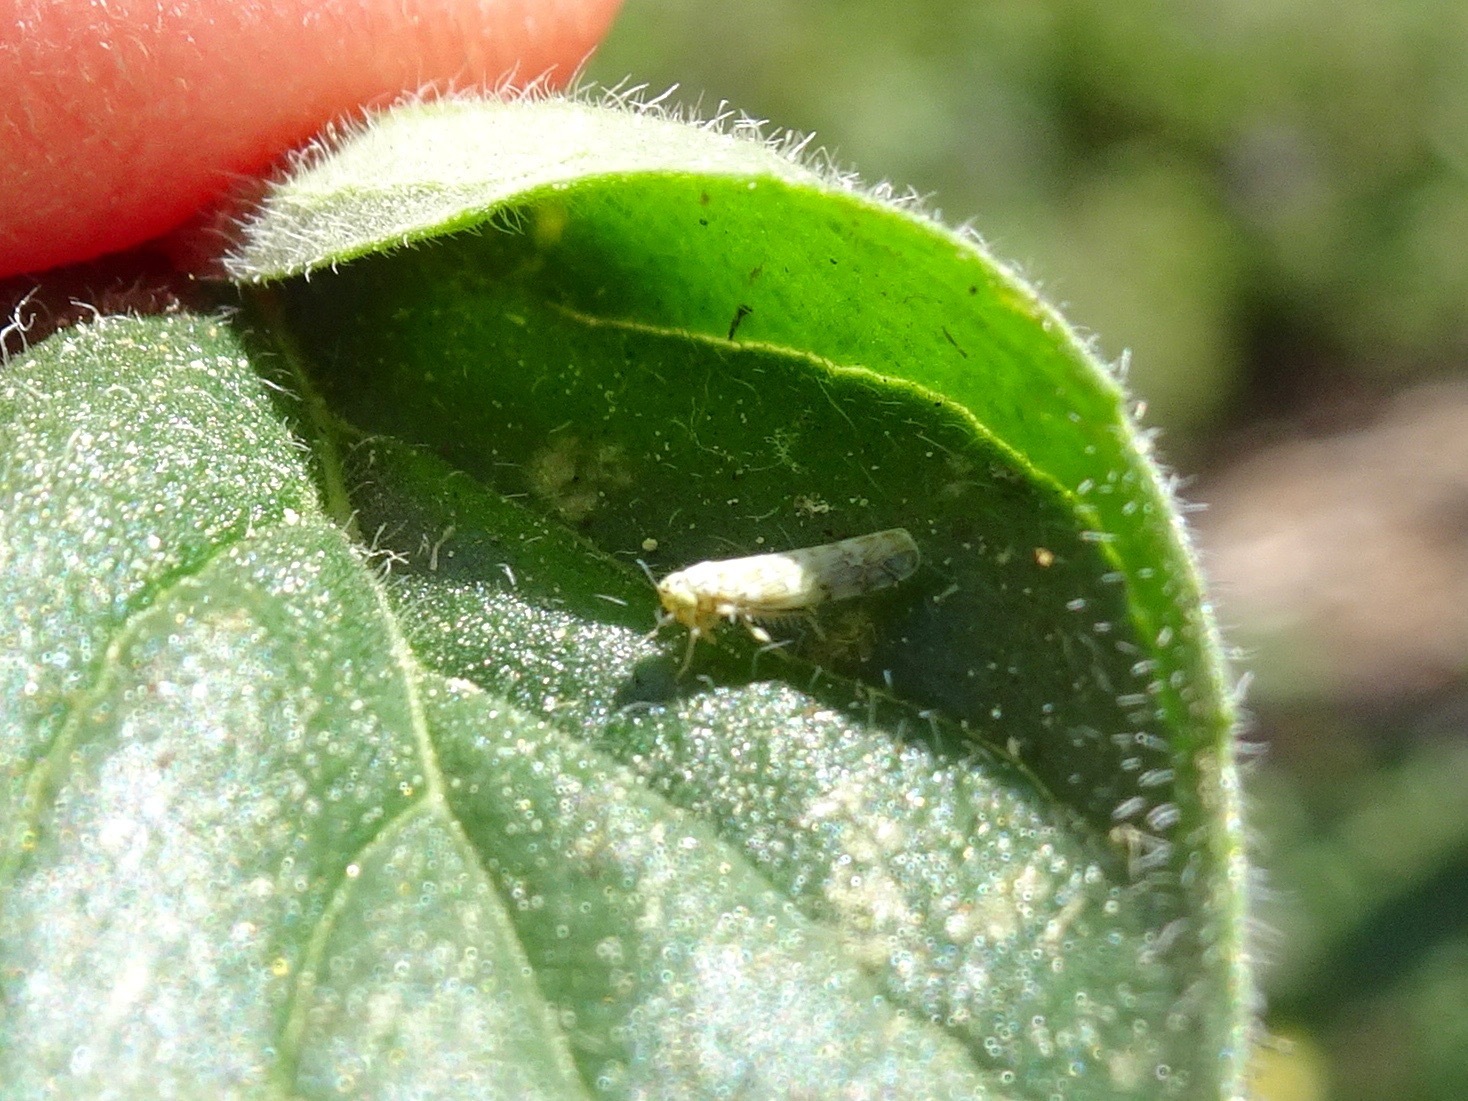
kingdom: Animalia
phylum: Arthropoda
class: Insecta
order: Hemiptera
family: Cicadellidae
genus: Eupteryx
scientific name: Eupteryx decemnotata
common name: Ligurian leafhopper
